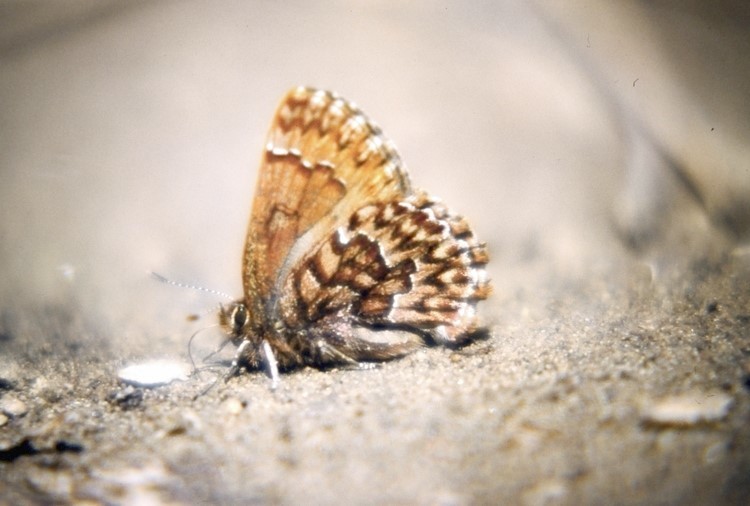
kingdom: Animalia
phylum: Arthropoda
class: Insecta
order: Lepidoptera
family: Lycaenidae
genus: Incisalia
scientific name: Incisalia eryphon
